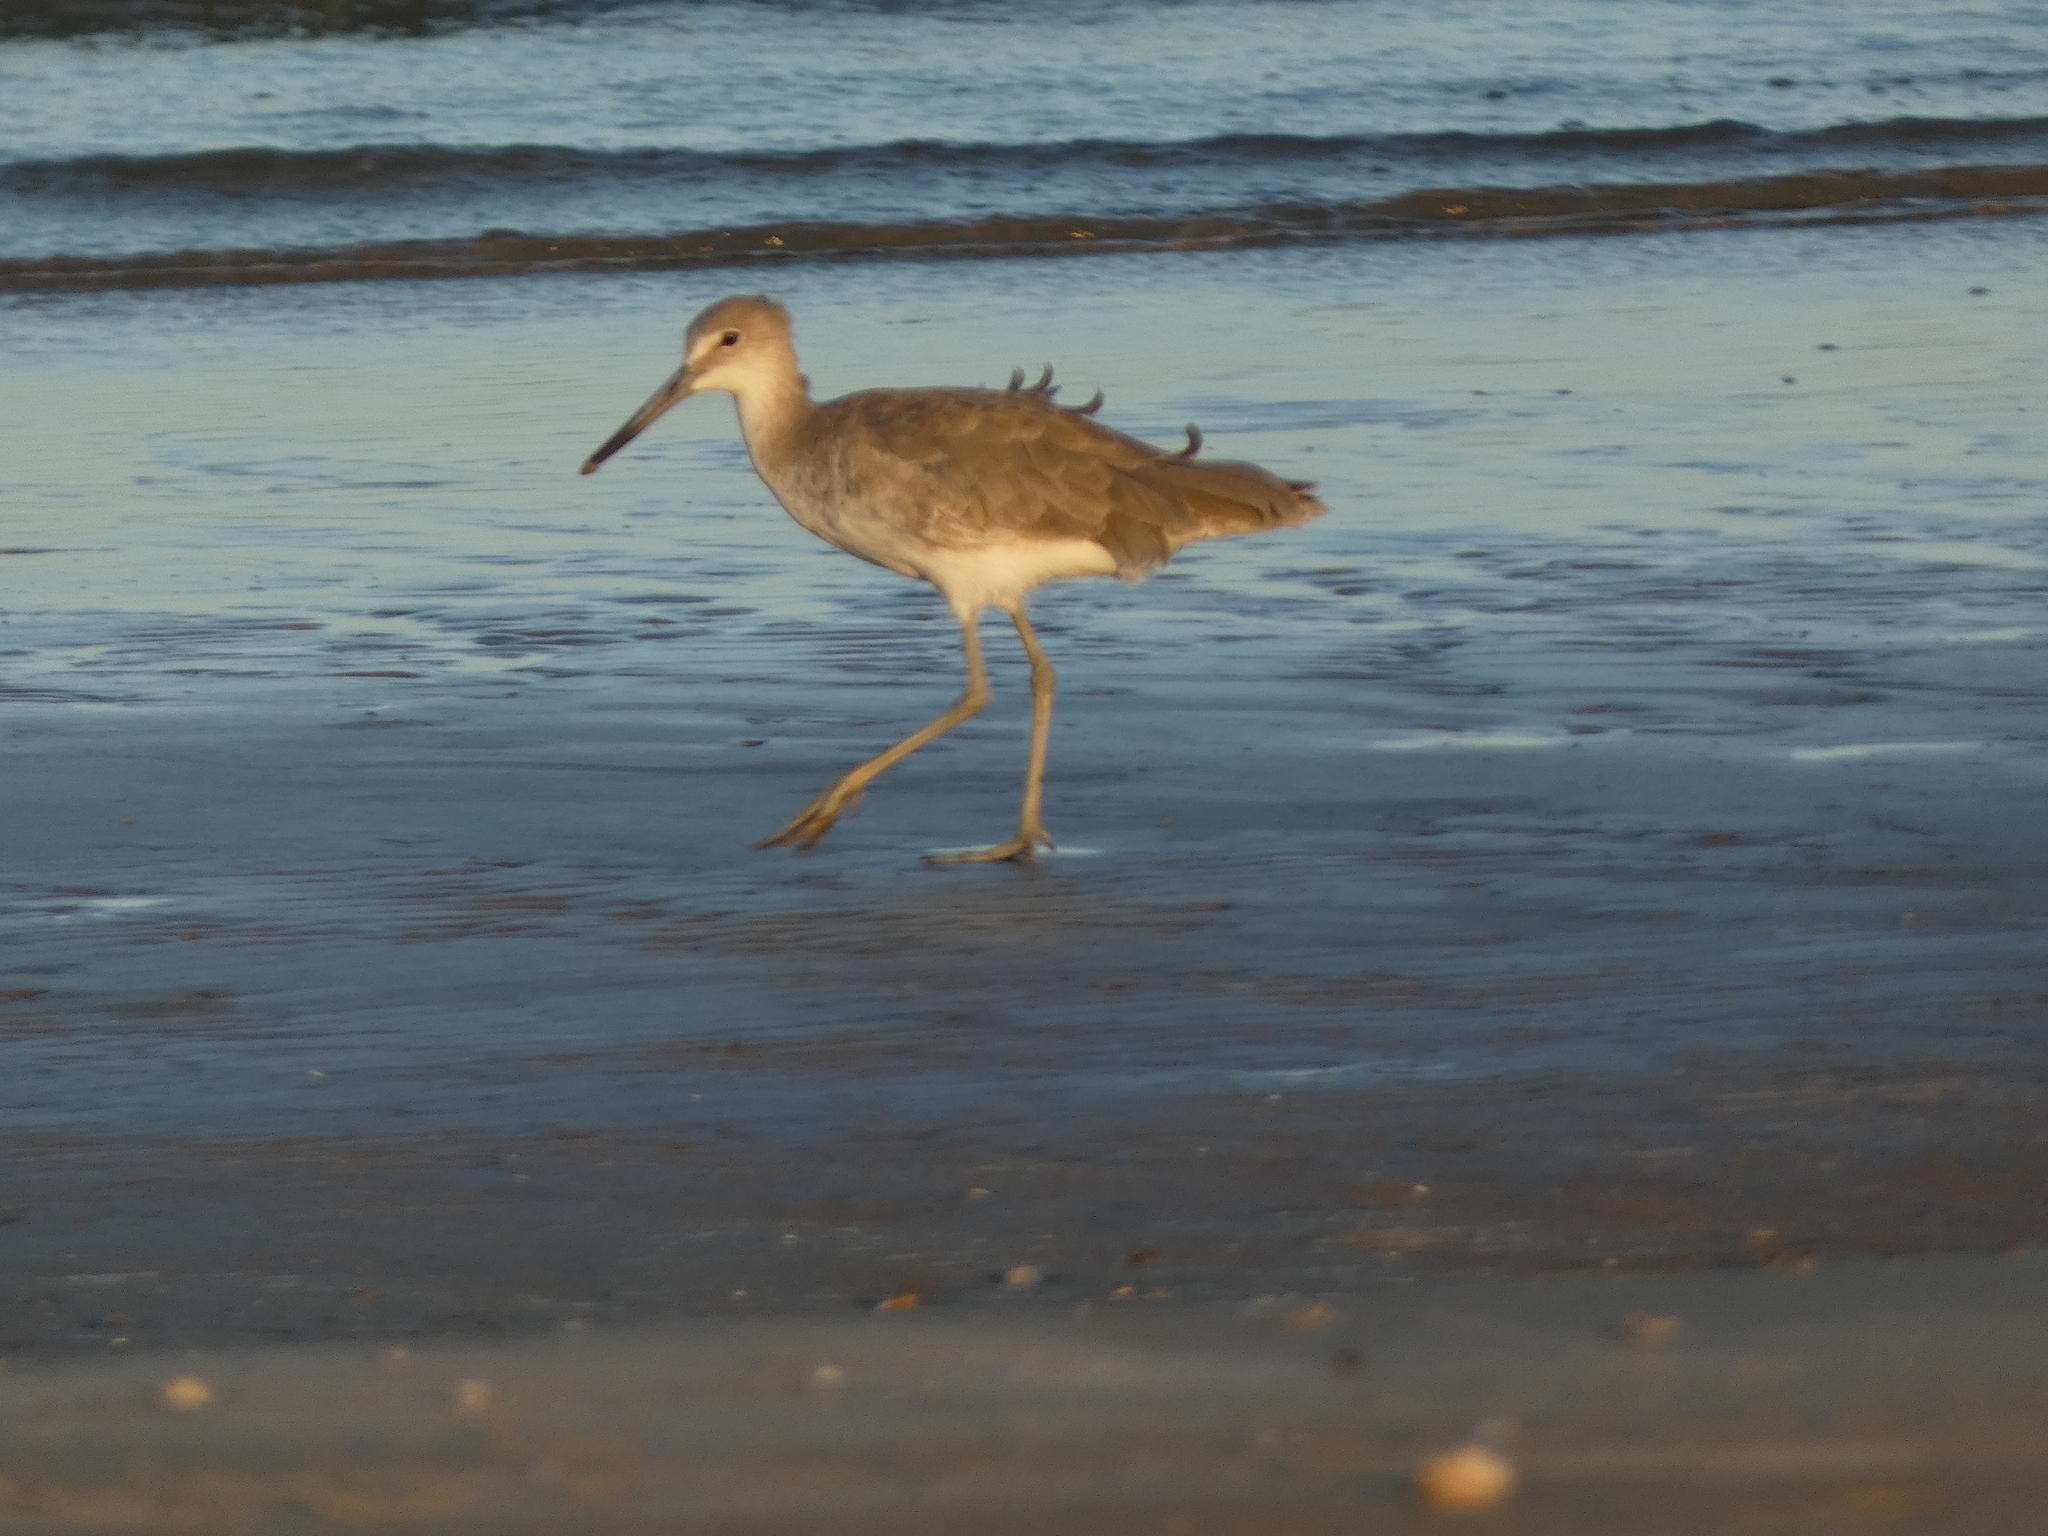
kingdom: Animalia
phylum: Chordata
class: Aves
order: Charadriiformes
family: Scolopacidae
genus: Tringa
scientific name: Tringa semipalmata
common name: Willet
